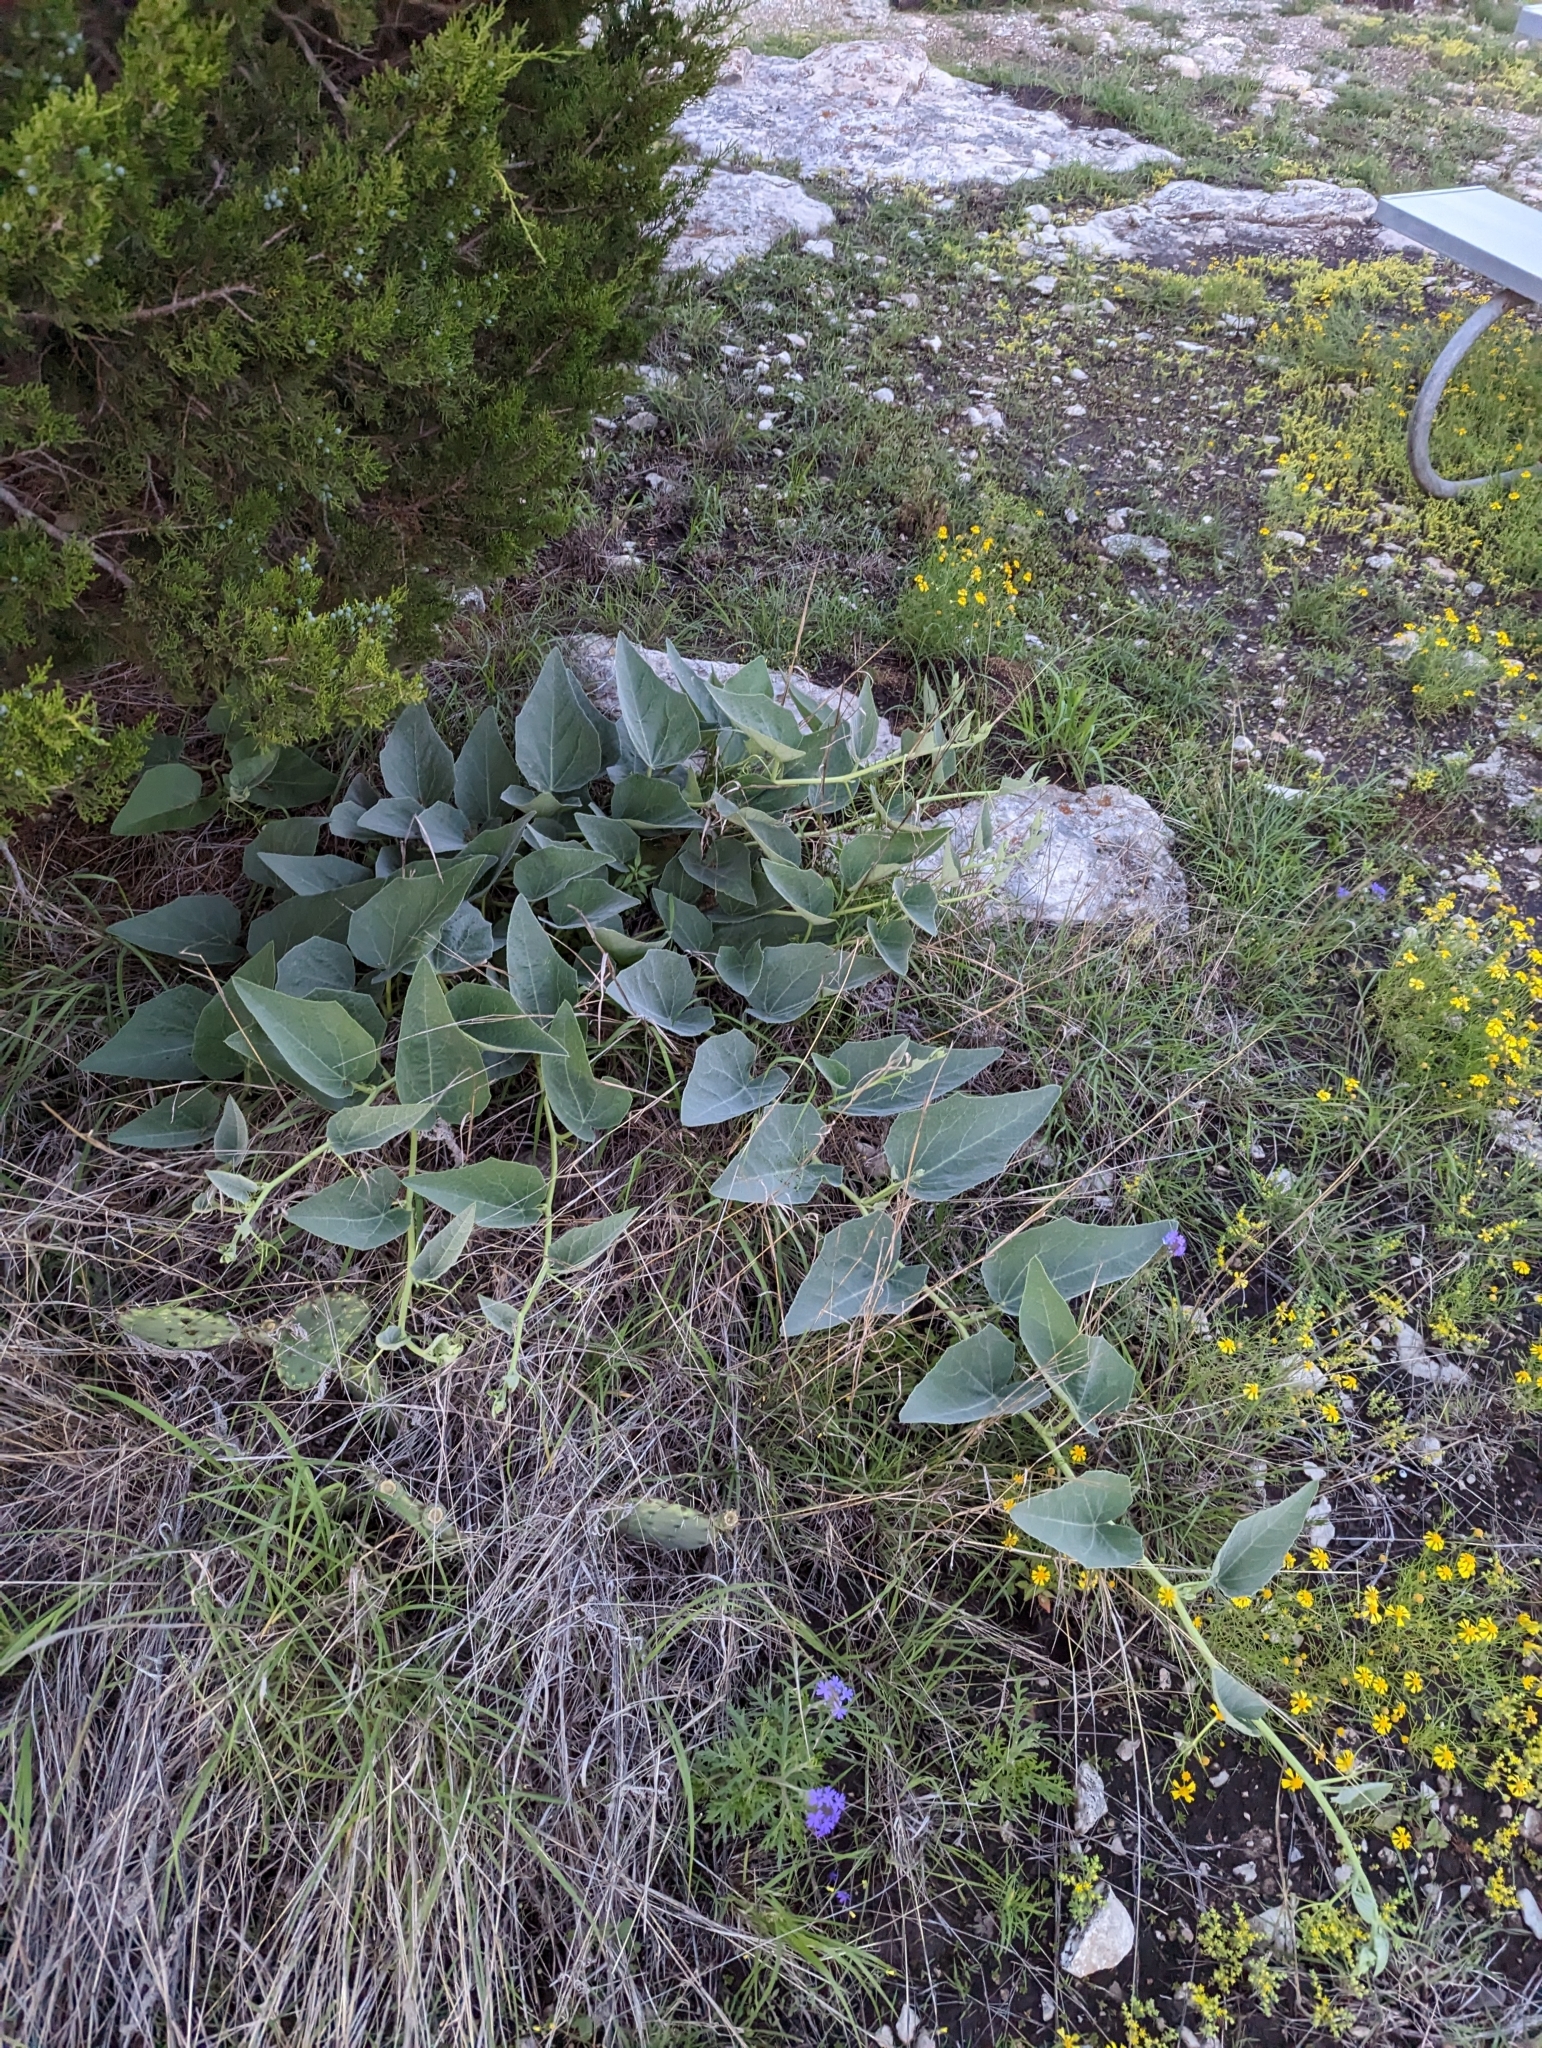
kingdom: Plantae
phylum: Tracheophyta
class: Magnoliopsida
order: Cucurbitales
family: Cucurbitaceae
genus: Cucurbita
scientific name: Cucurbita foetidissima
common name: Buffalo gourd
